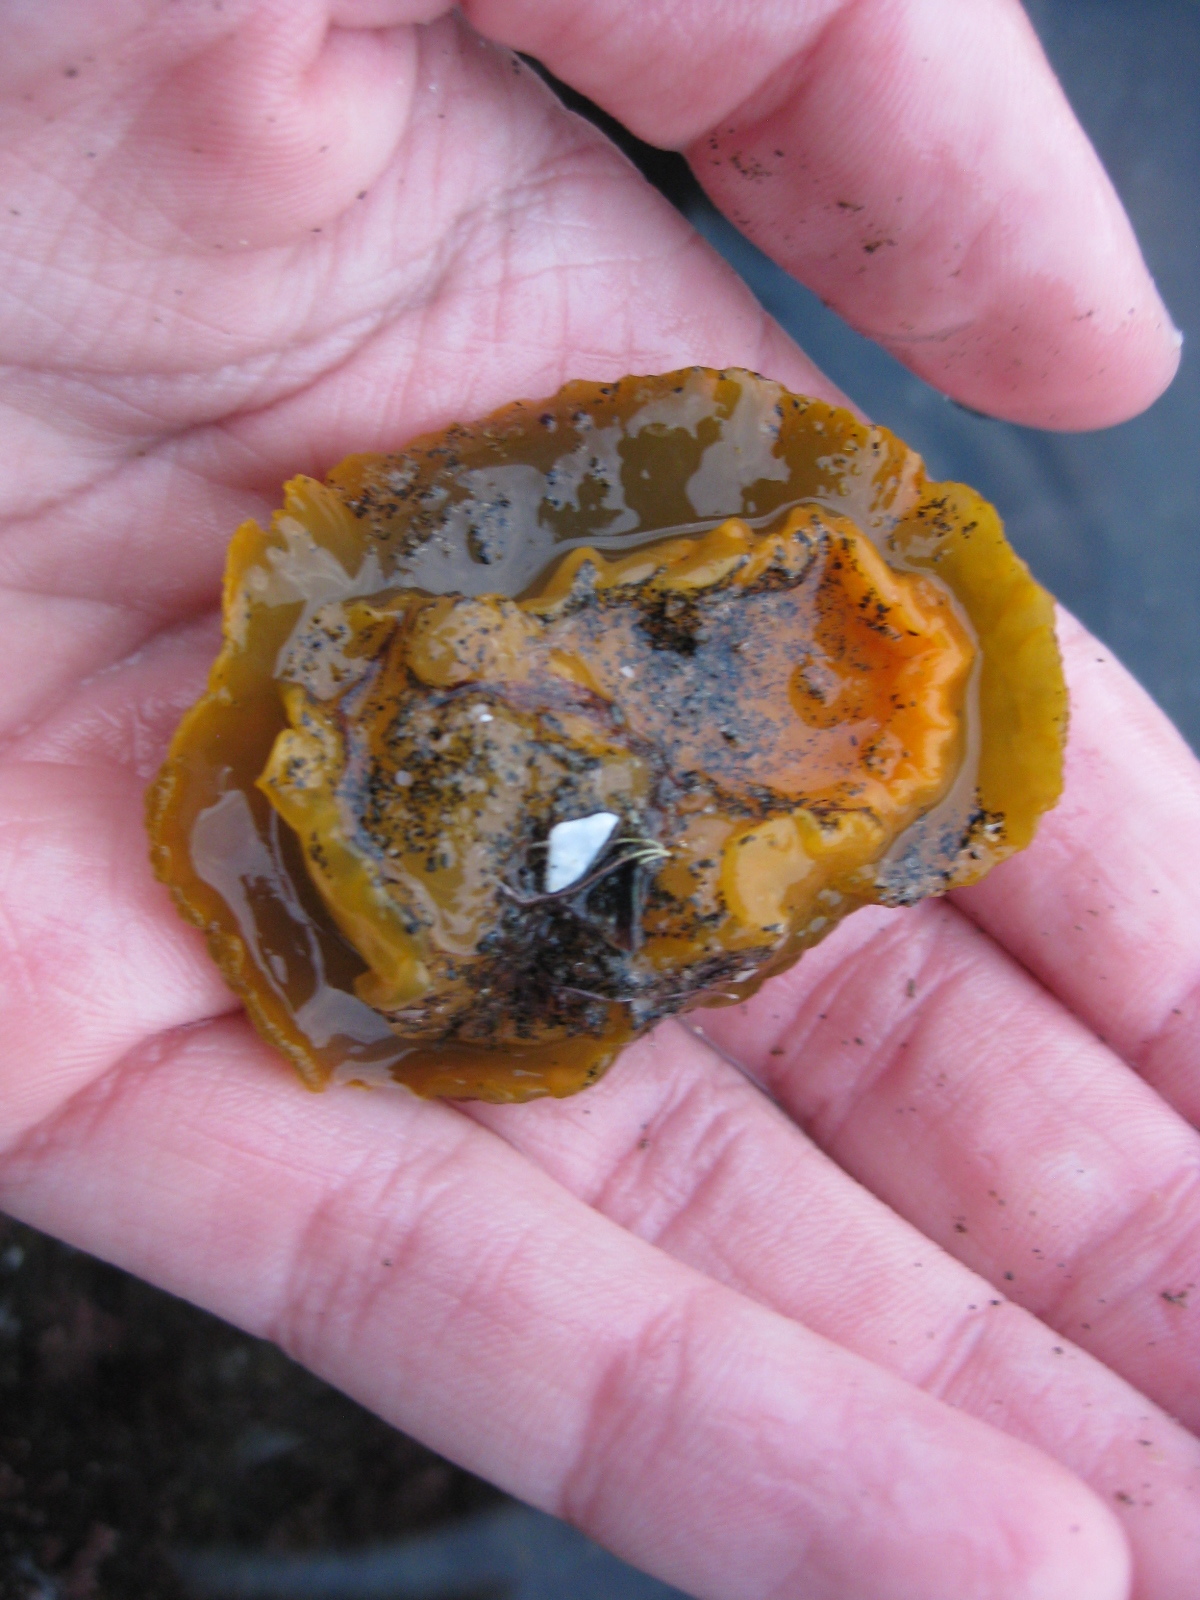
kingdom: Animalia
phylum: Mollusca
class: Gastropoda
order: Nudibranchia
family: Dorididae
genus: Doris
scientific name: Doris wellingtonensis
